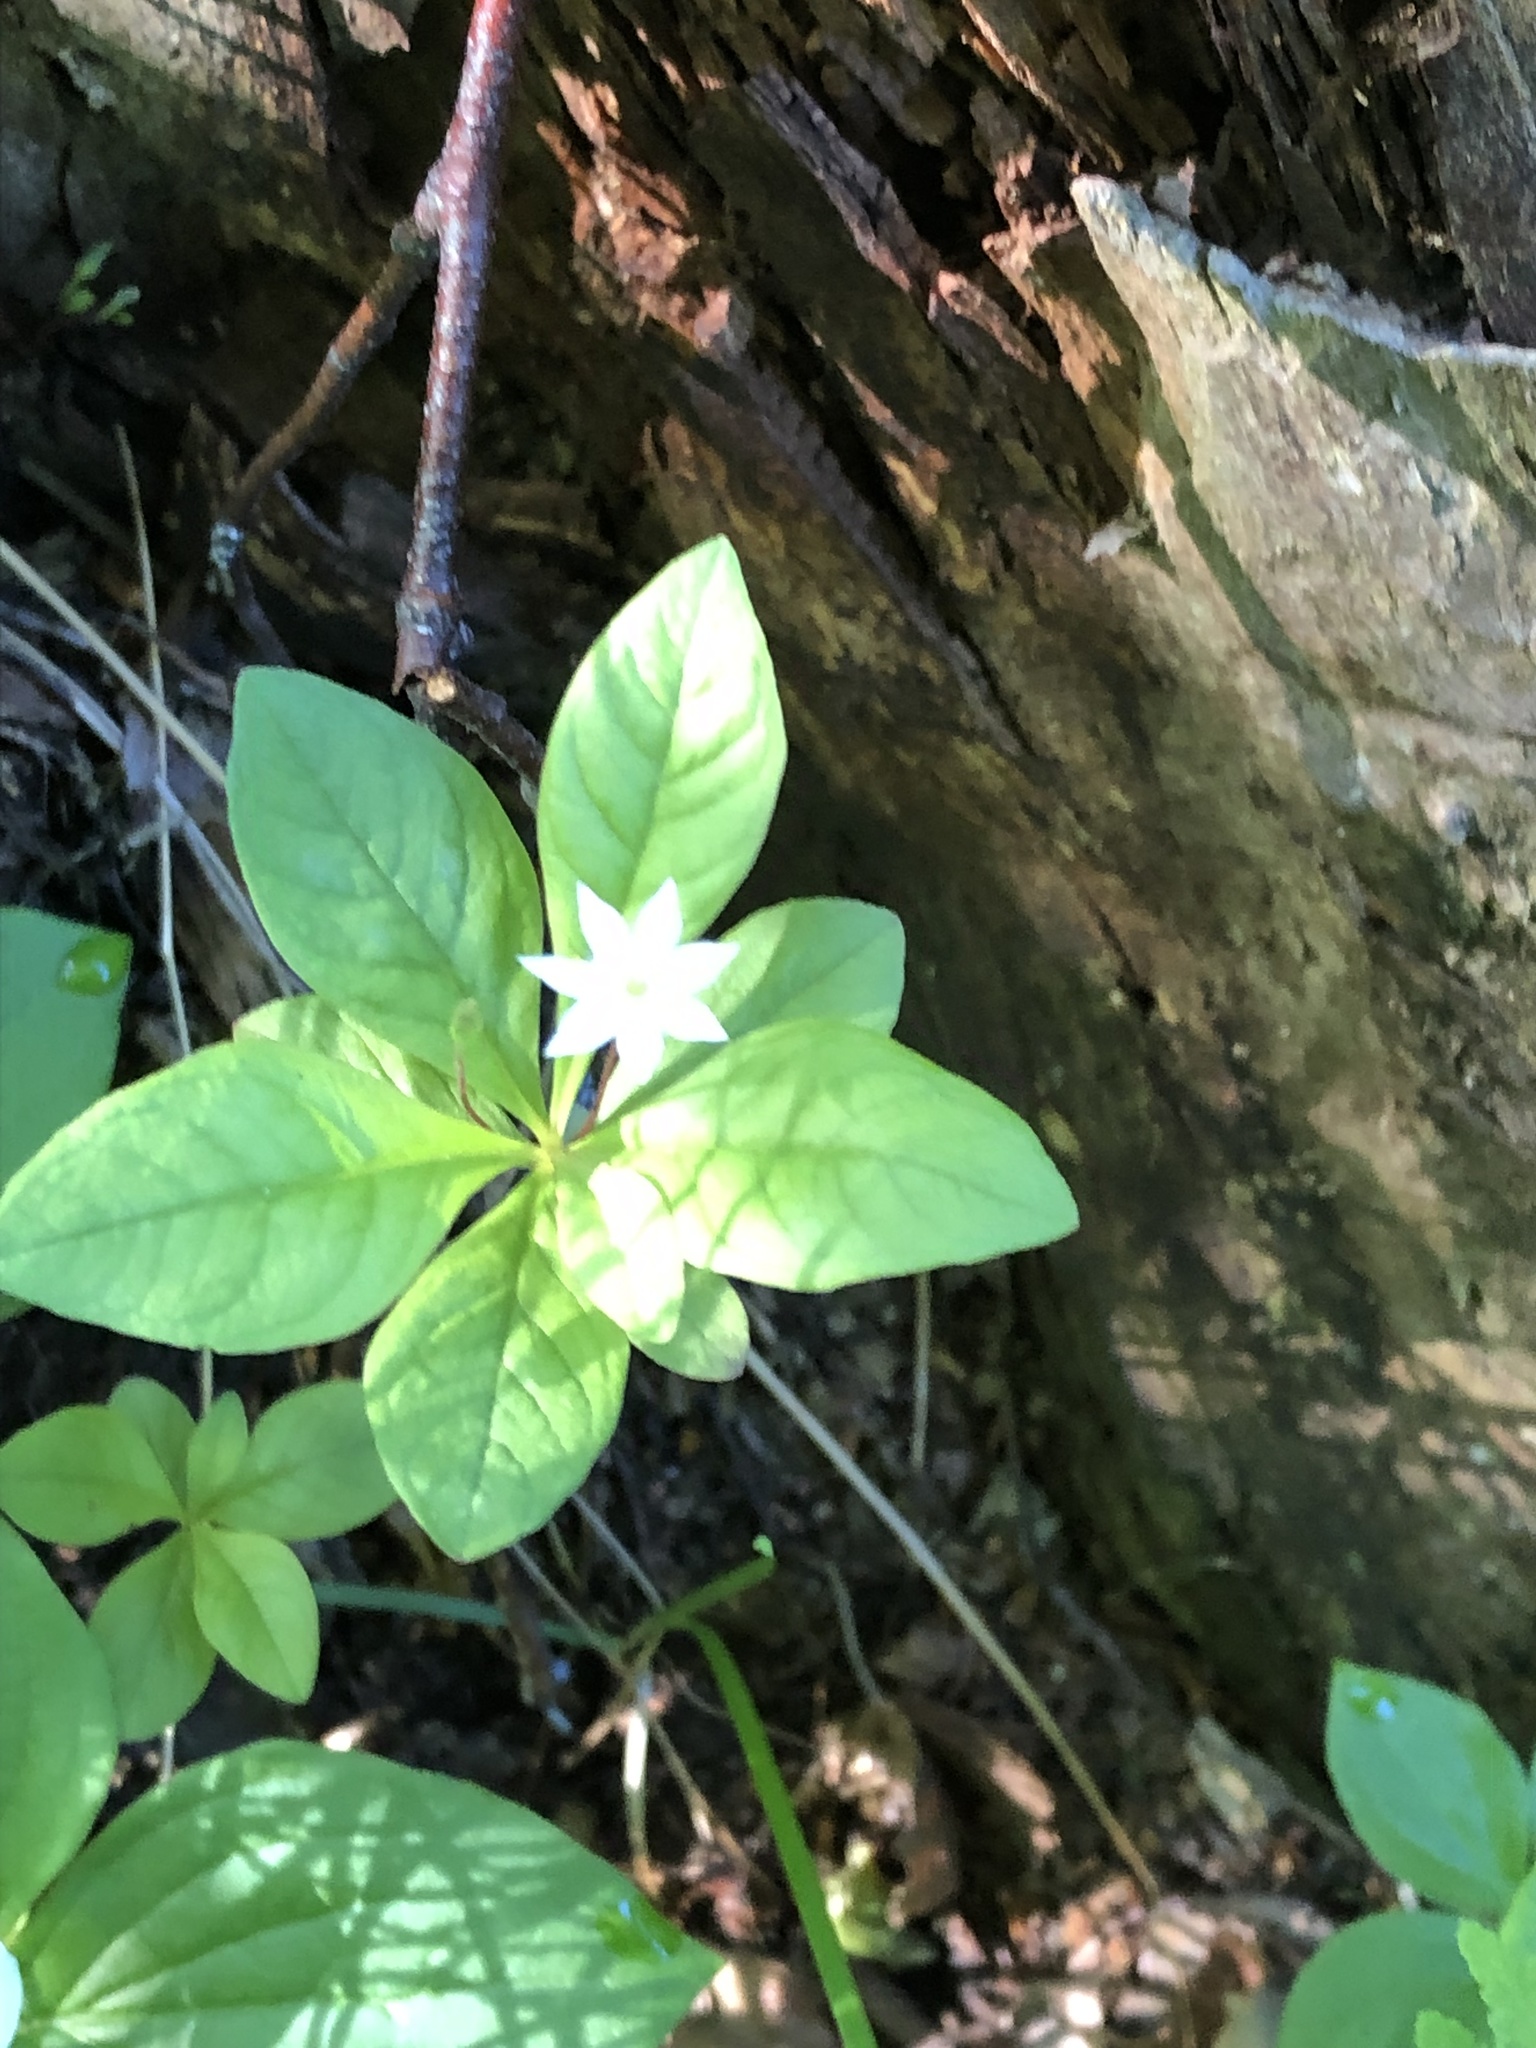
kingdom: Plantae
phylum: Tracheophyta
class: Magnoliopsida
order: Ericales
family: Primulaceae
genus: Lysimachia
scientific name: Lysimachia europaea
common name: Arctic starflower
